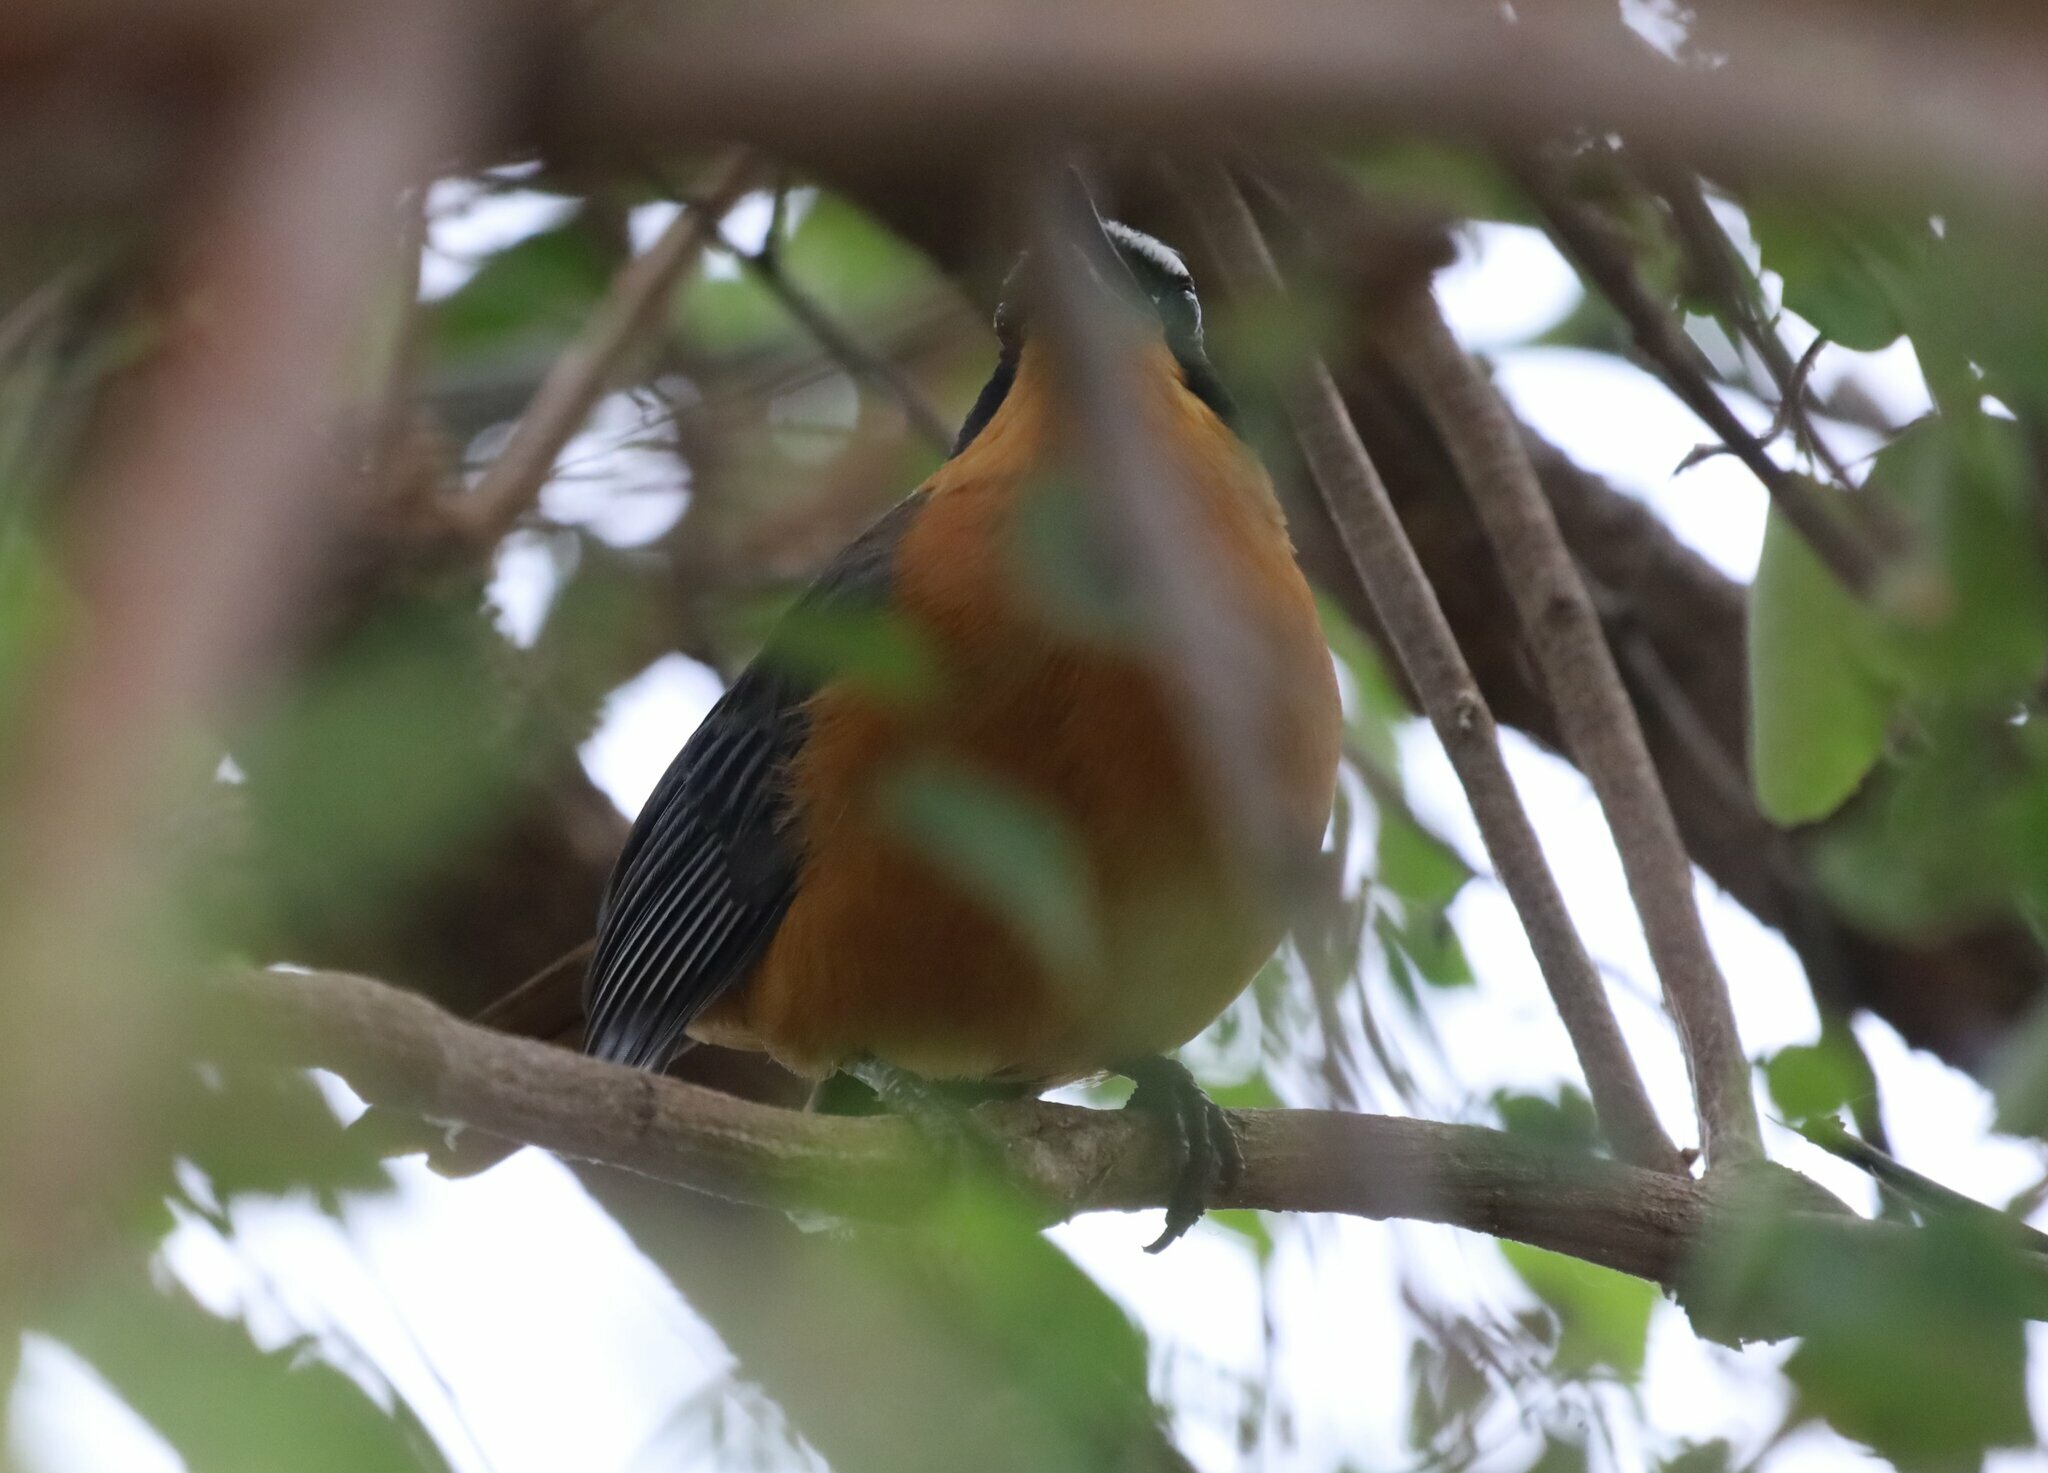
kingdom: Animalia
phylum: Chordata
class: Aves
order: Passeriformes
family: Muscicapidae
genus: Cossypha
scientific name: Cossypha heuglini
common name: White-browed robin-chat
